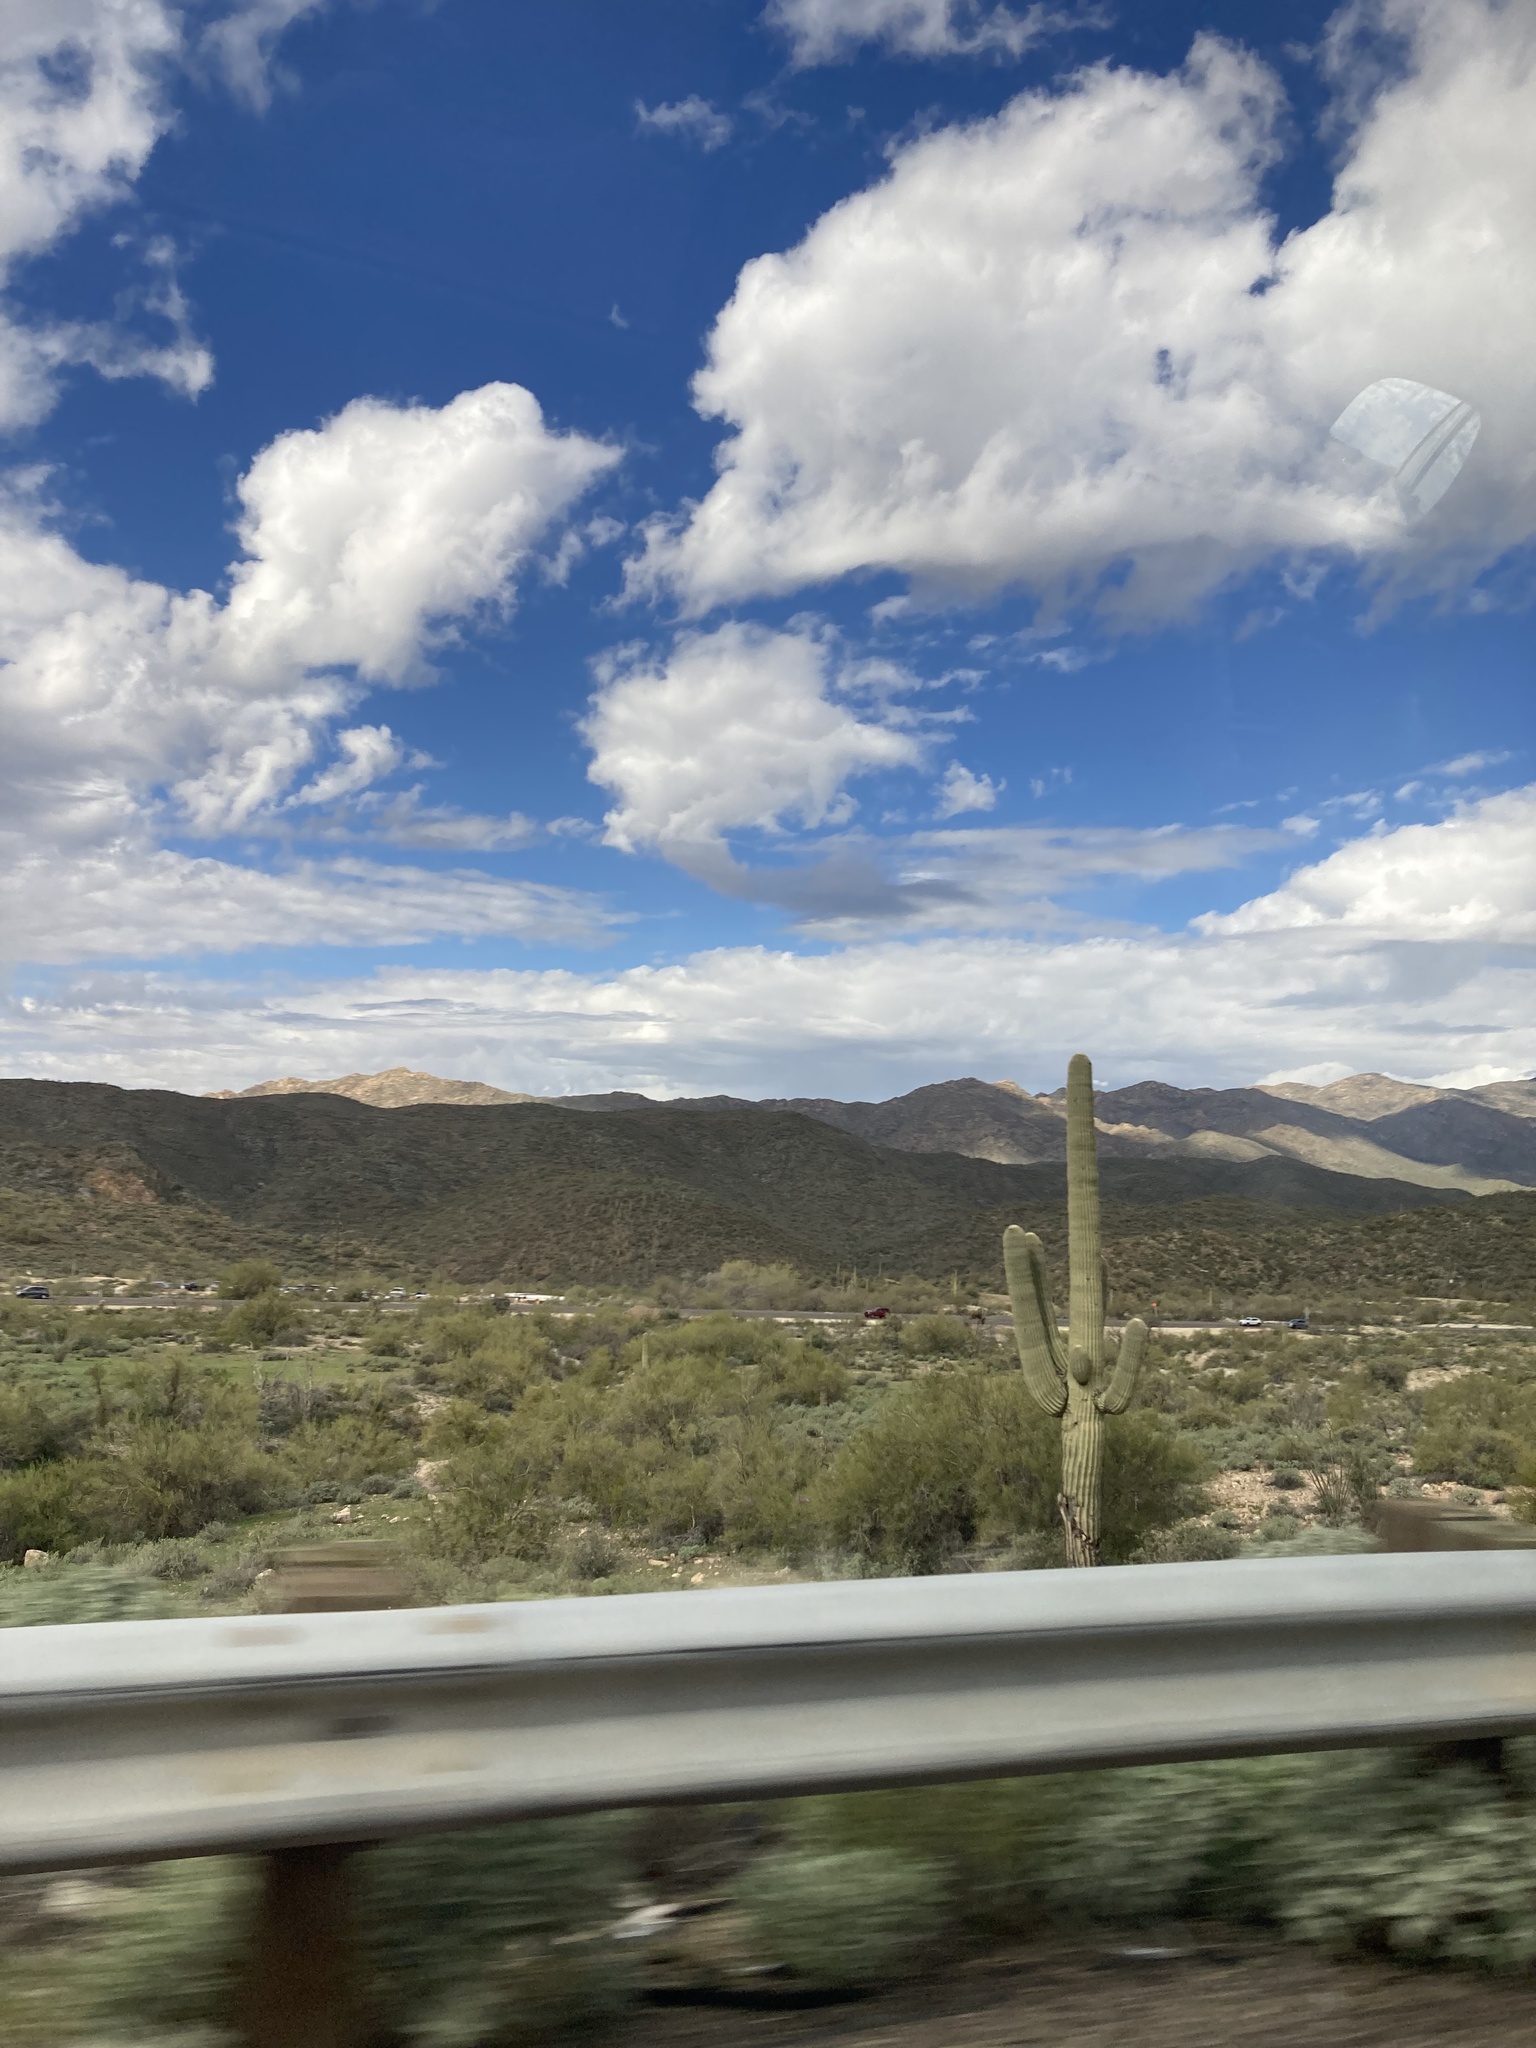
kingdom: Plantae
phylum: Tracheophyta
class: Magnoliopsida
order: Caryophyllales
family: Cactaceae
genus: Carnegiea
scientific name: Carnegiea gigantea
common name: Saguaro
